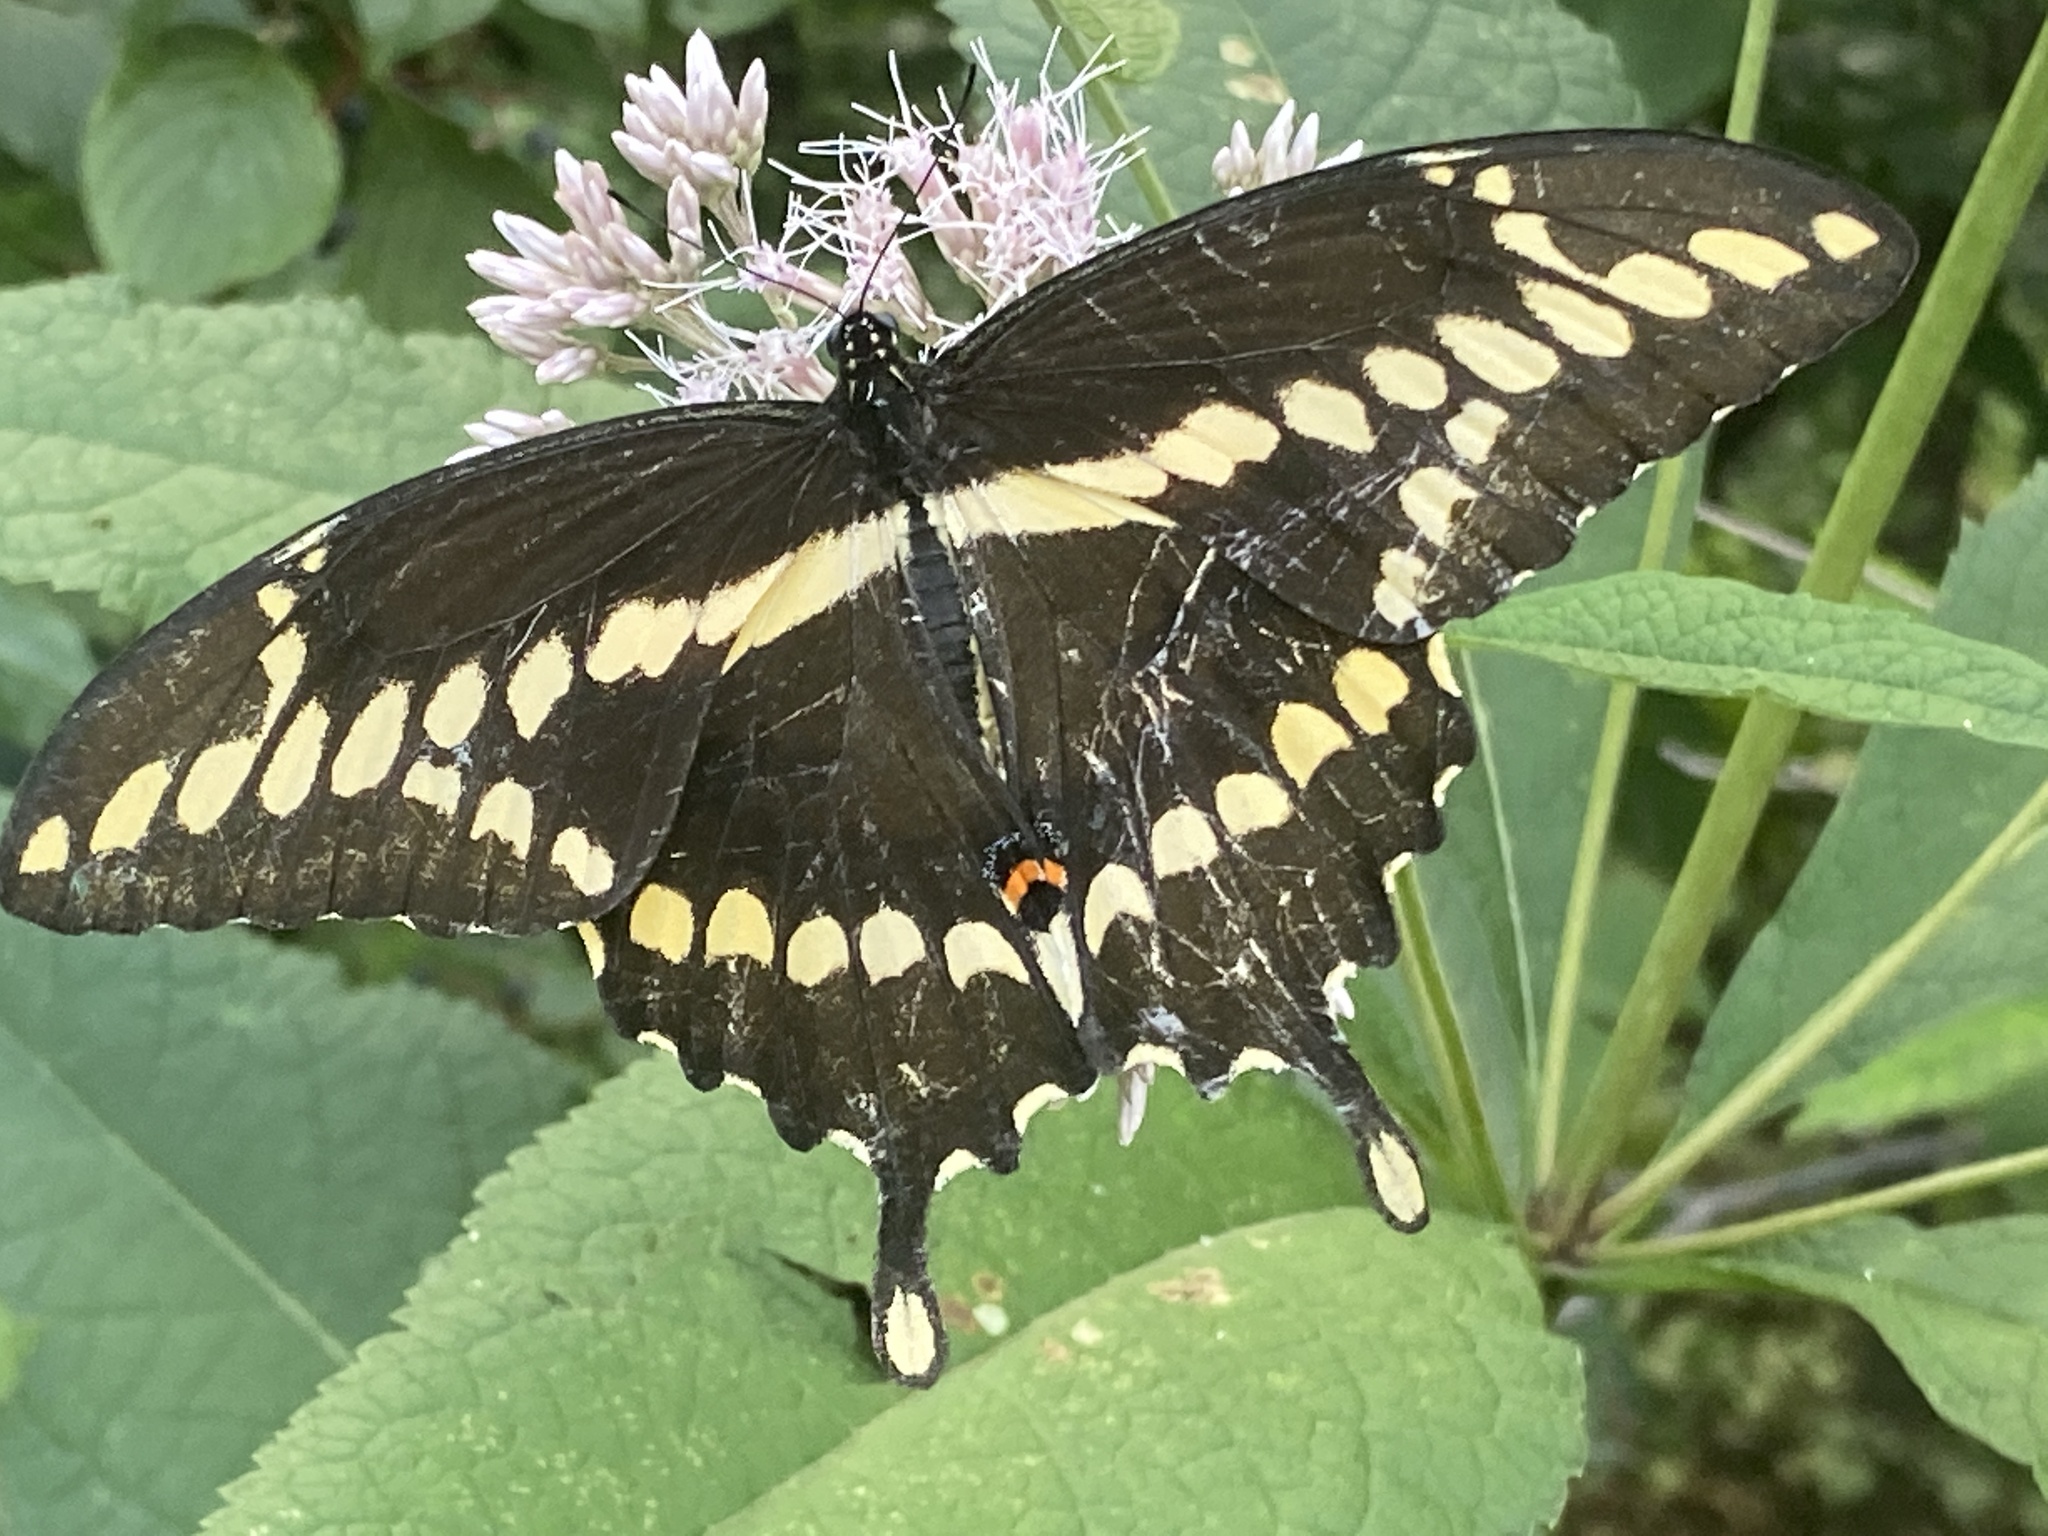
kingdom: Animalia
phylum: Arthropoda
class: Insecta
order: Lepidoptera
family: Papilionidae
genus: Papilio
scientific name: Papilio cresphontes
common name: Giant swallowtail
